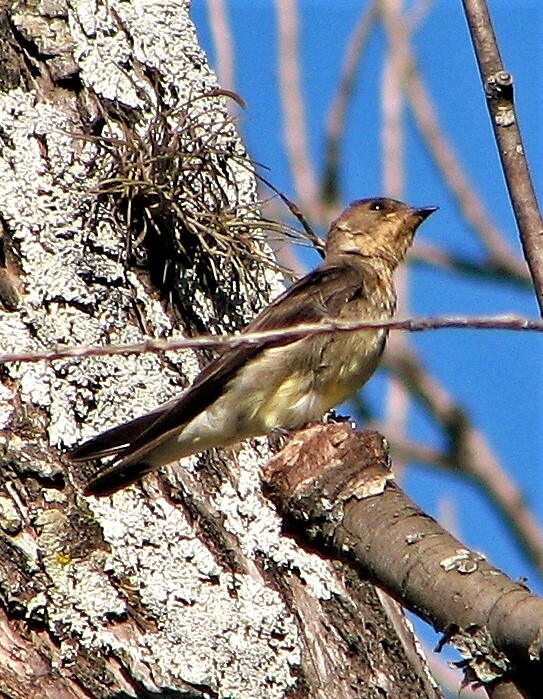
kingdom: Animalia
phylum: Chordata
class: Aves
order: Passeriformes
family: Hirundinidae
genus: Stelgidopteryx
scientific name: Stelgidopteryx ruficollis
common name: Southern rough-winged swallow
